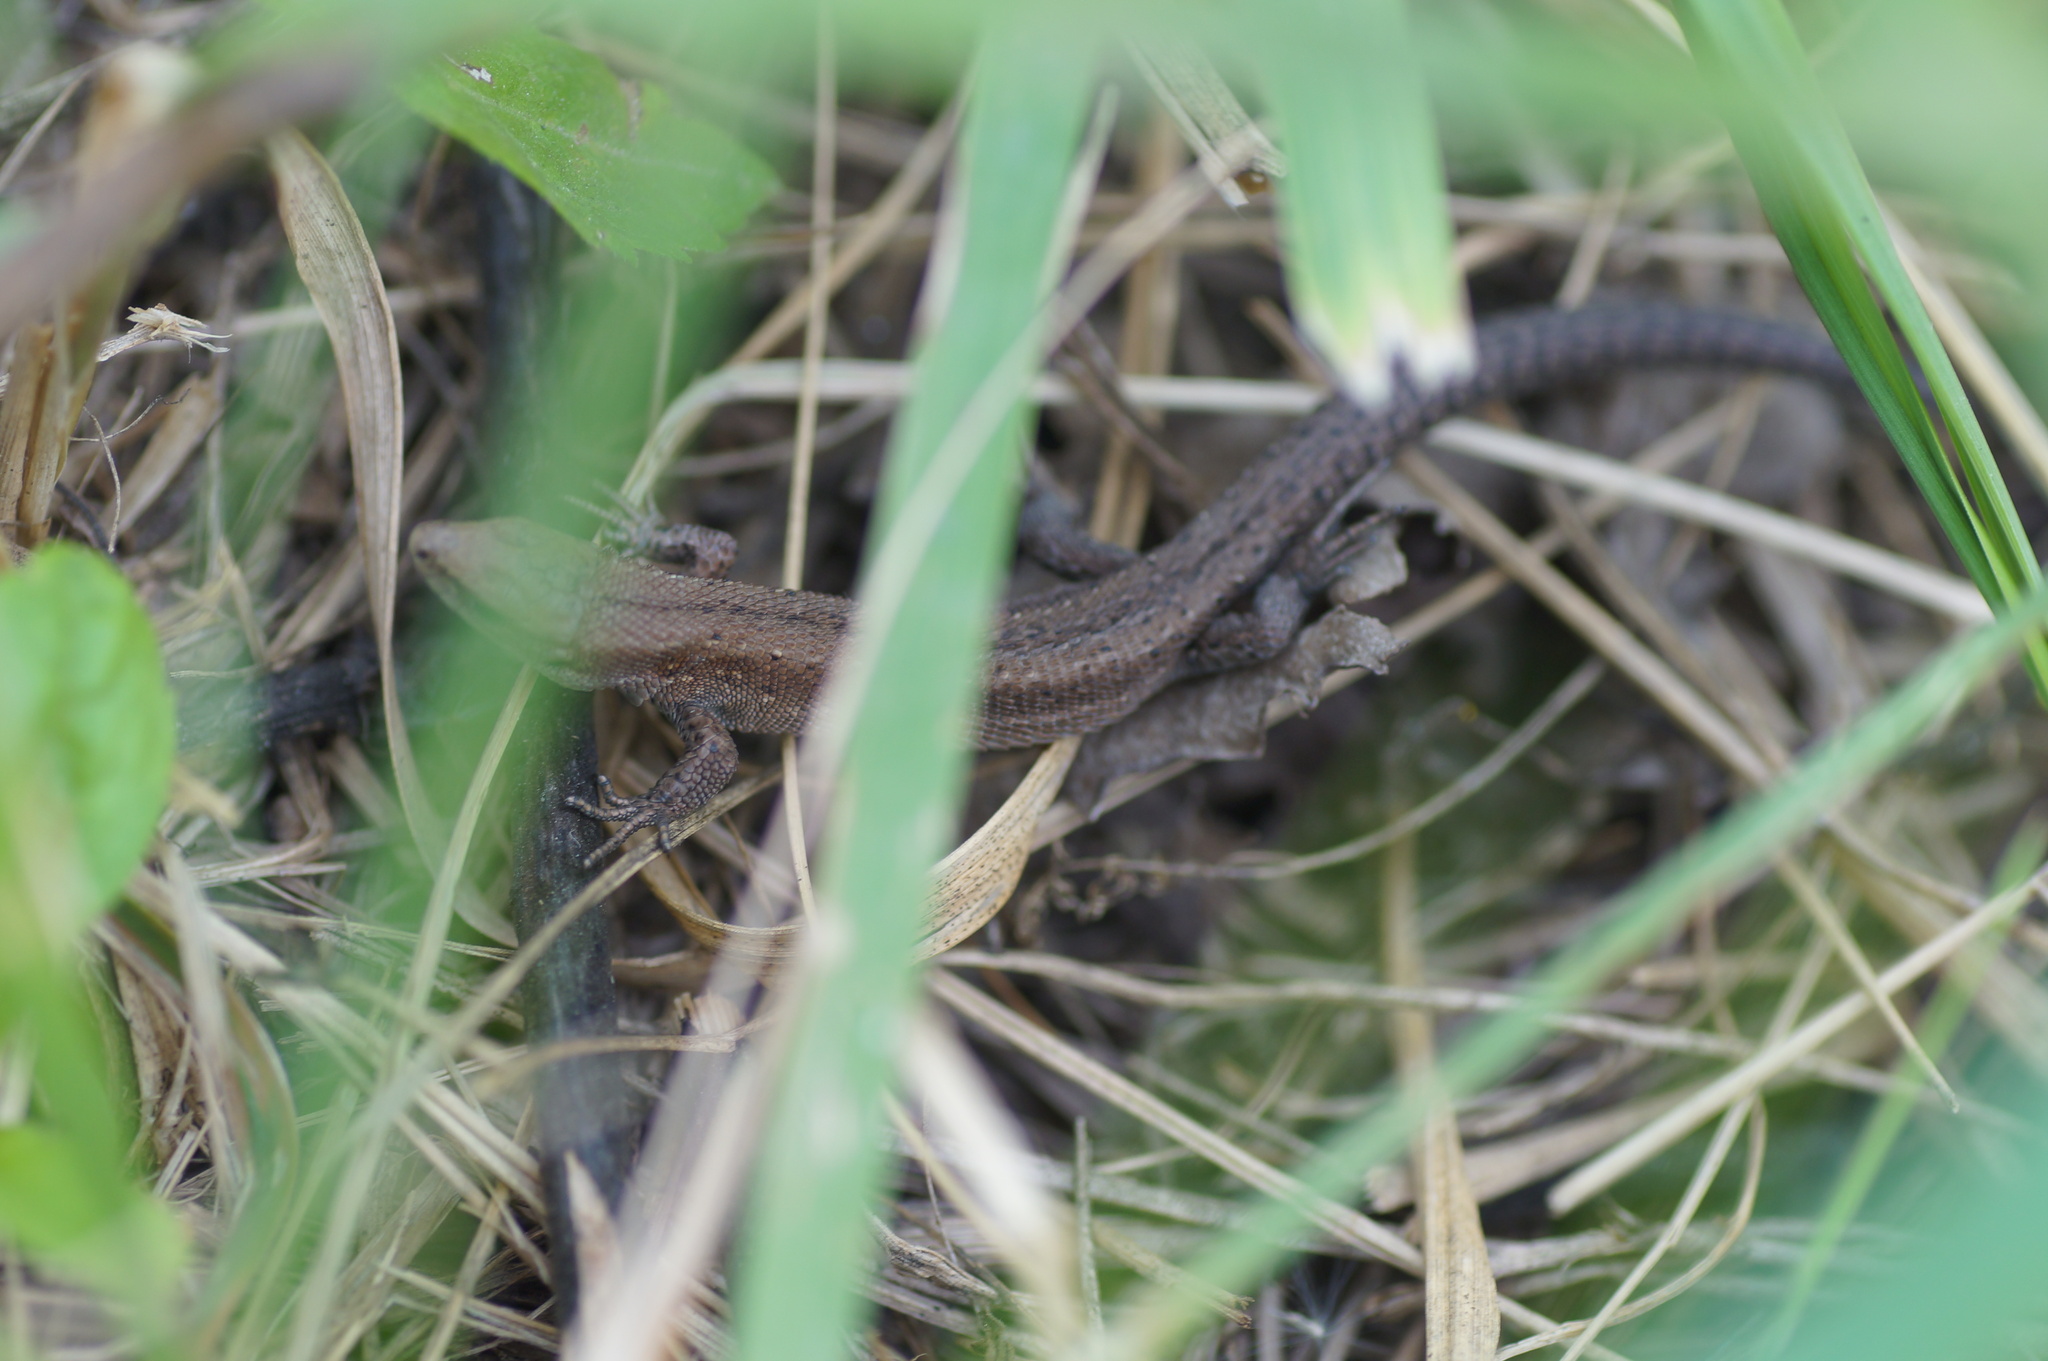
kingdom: Animalia
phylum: Chordata
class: Squamata
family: Lacertidae
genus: Zootoca
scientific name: Zootoca vivipara
